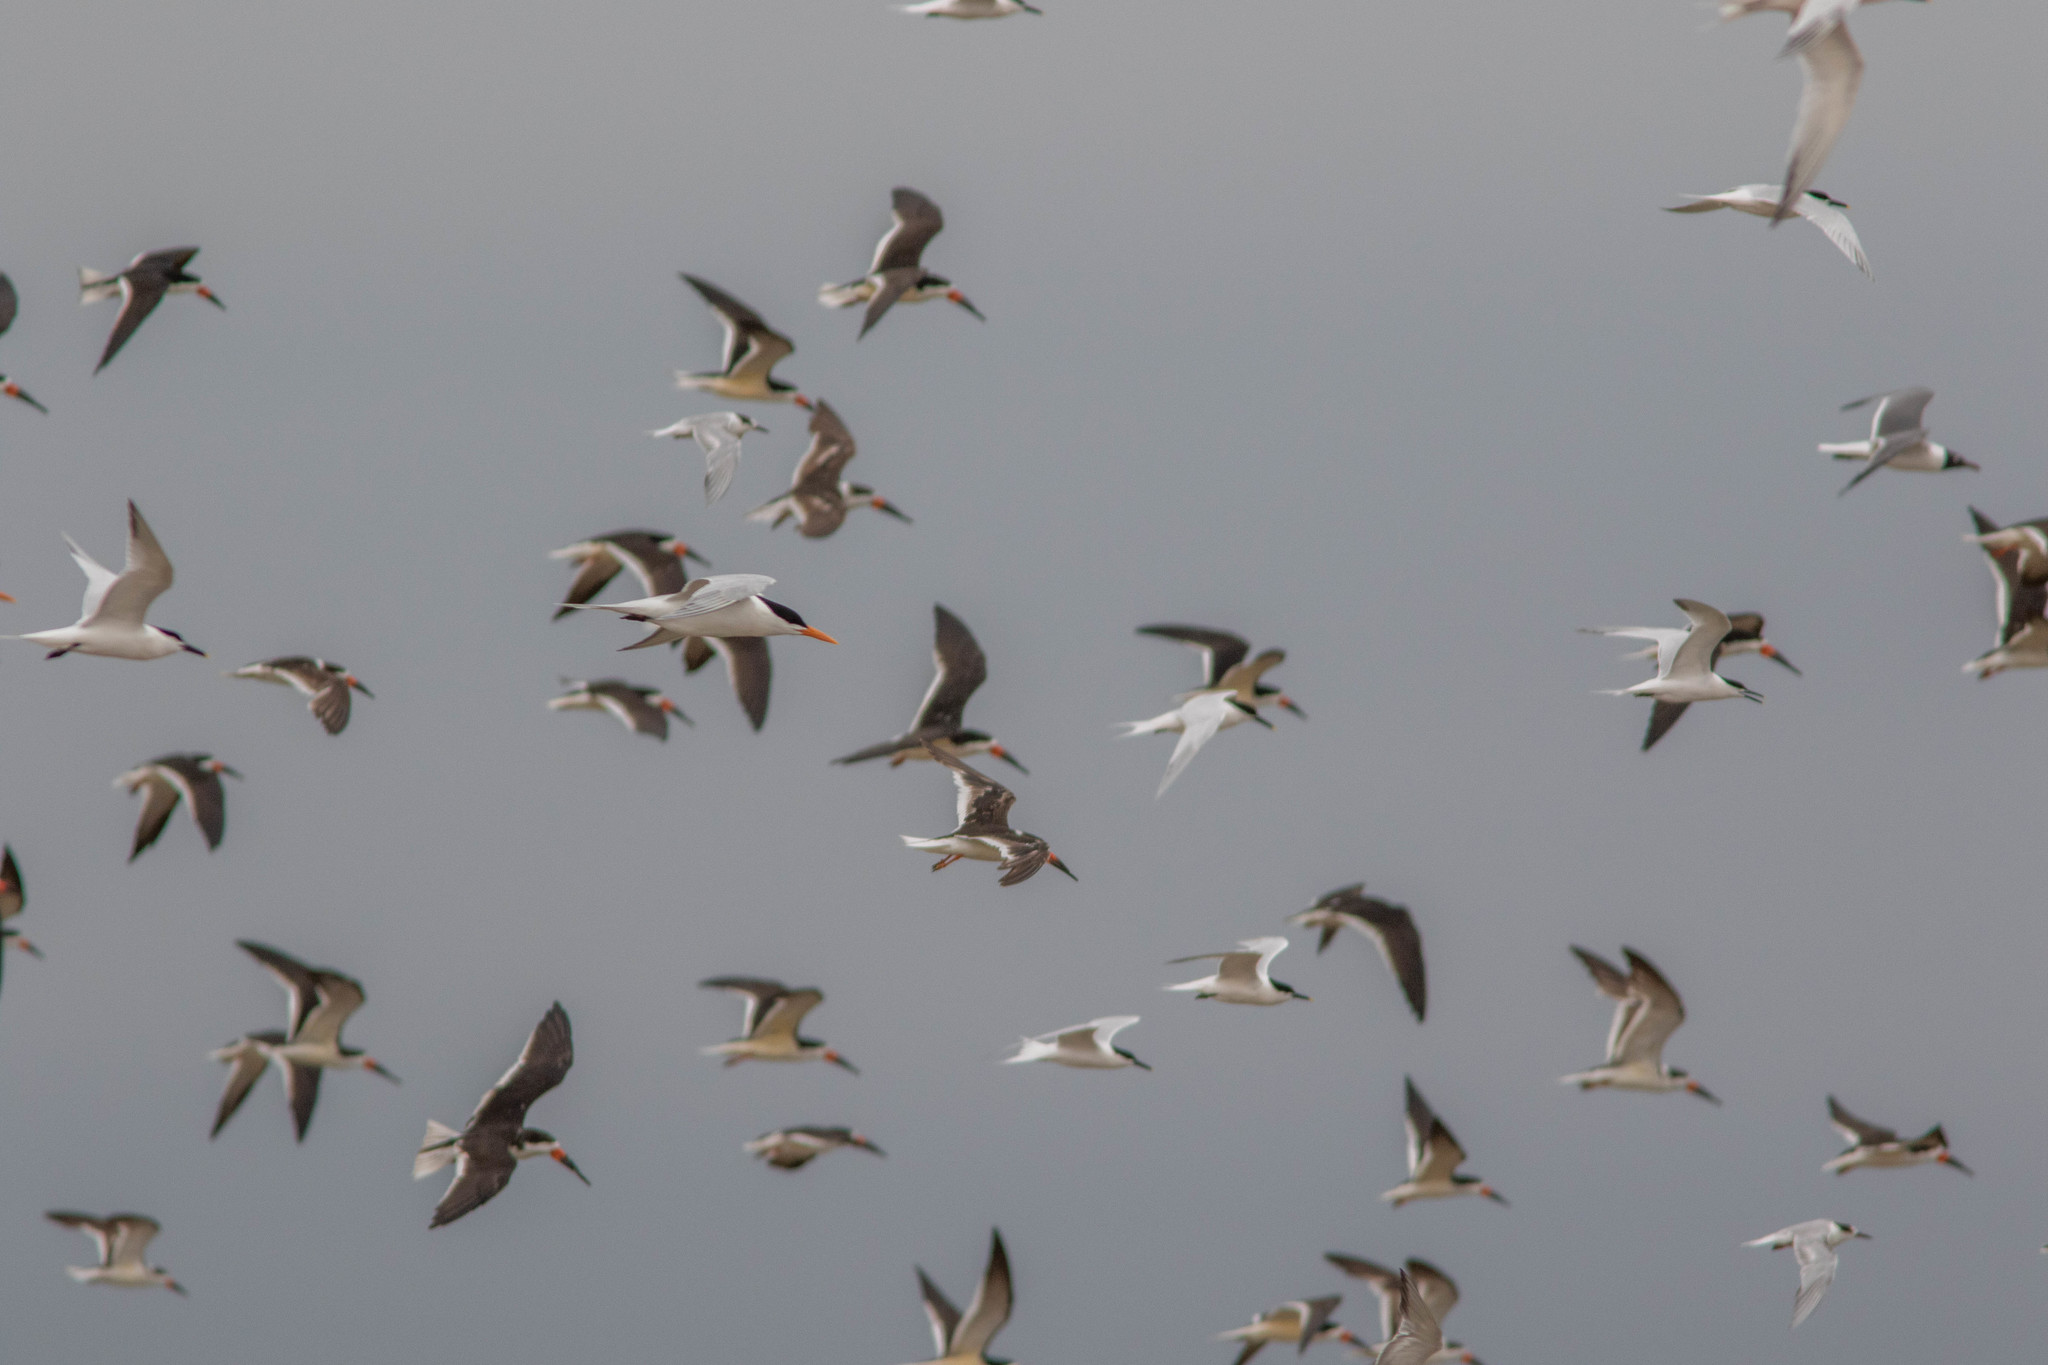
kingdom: Animalia
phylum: Chordata
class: Aves
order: Charadriiformes
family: Laridae
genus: Thalasseus
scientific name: Thalasseus maximus
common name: Royal tern
